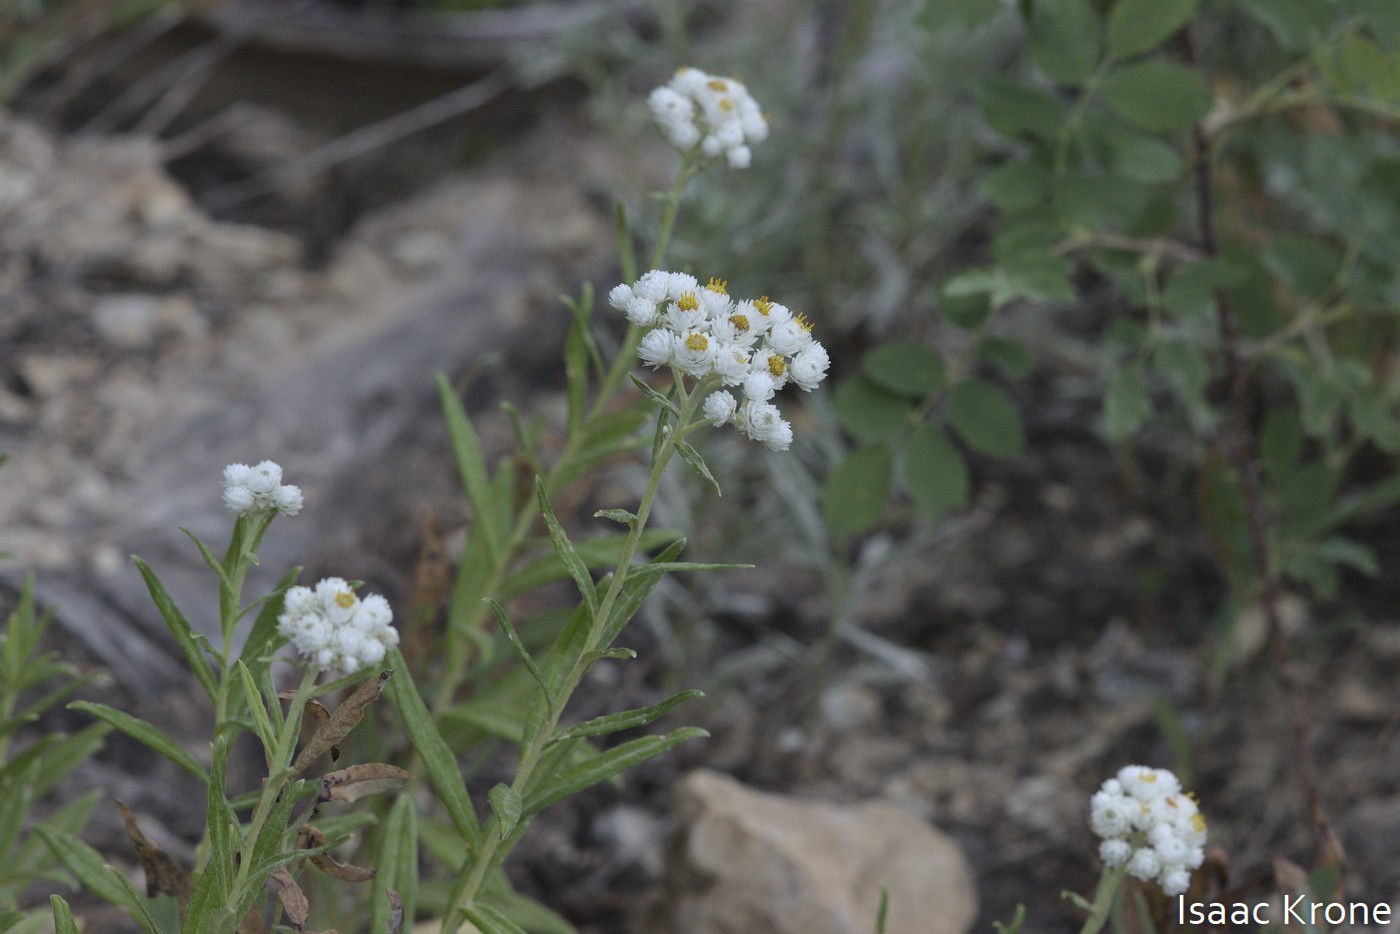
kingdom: Plantae
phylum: Tracheophyta
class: Magnoliopsida
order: Asterales
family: Asteraceae
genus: Anaphalis
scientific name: Anaphalis margaritacea
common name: Pearly everlasting
